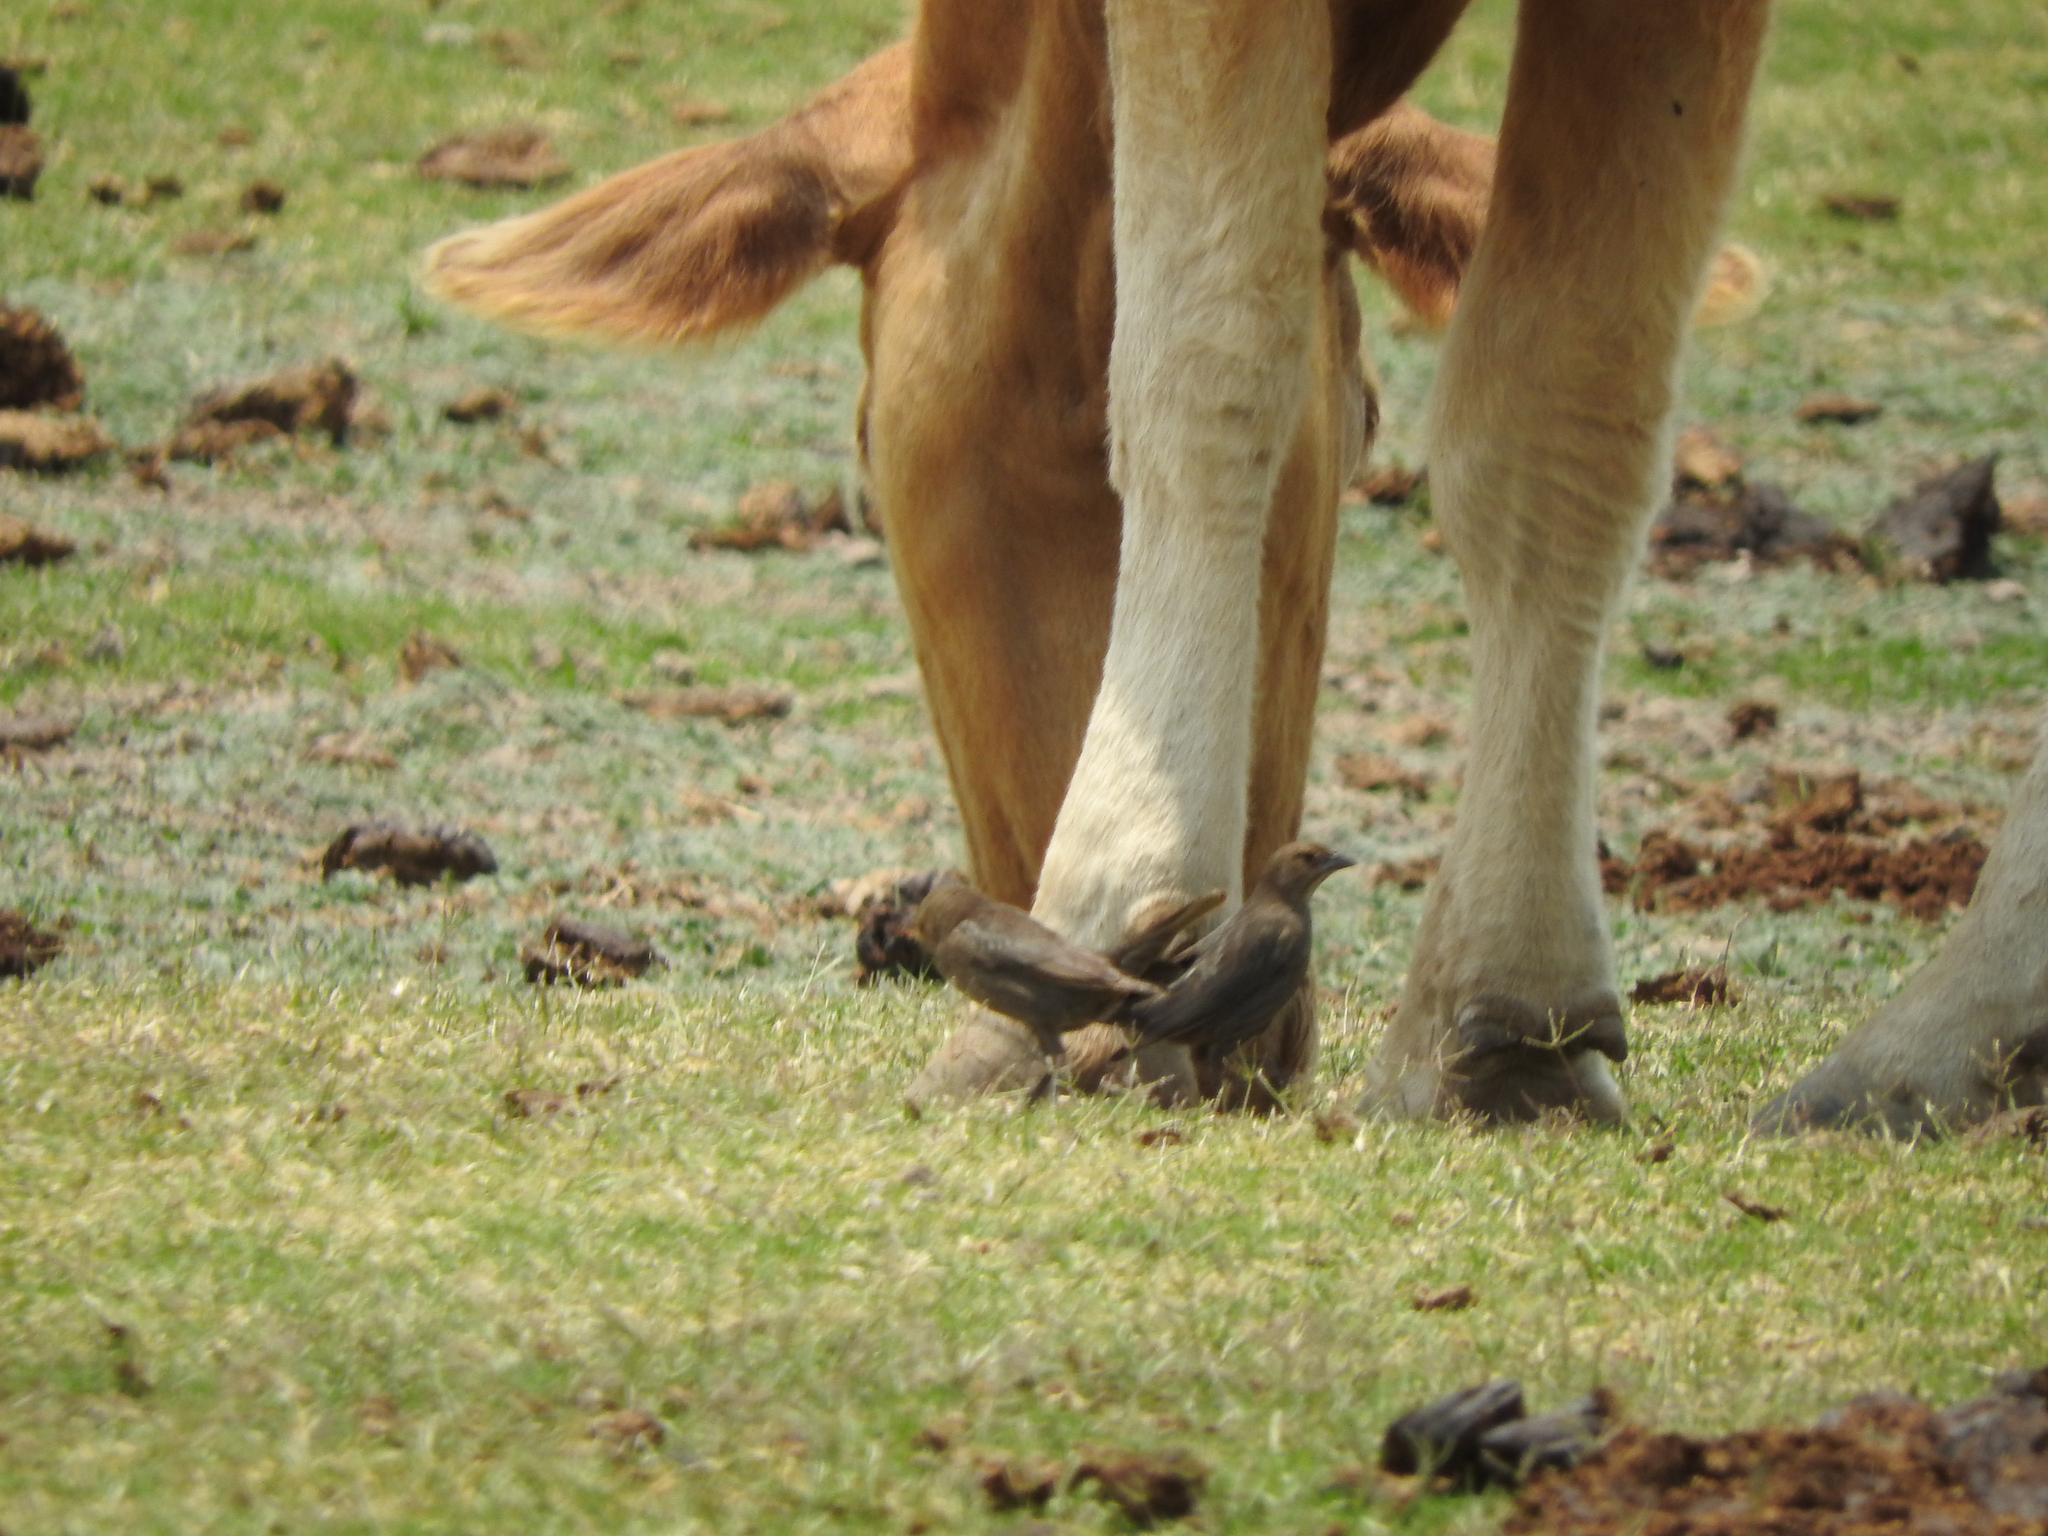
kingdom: Animalia
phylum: Chordata
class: Aves
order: Passeriformes
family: Icteridae
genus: Molothrus
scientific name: Molothrus ater
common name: Brown-headed cowbird
